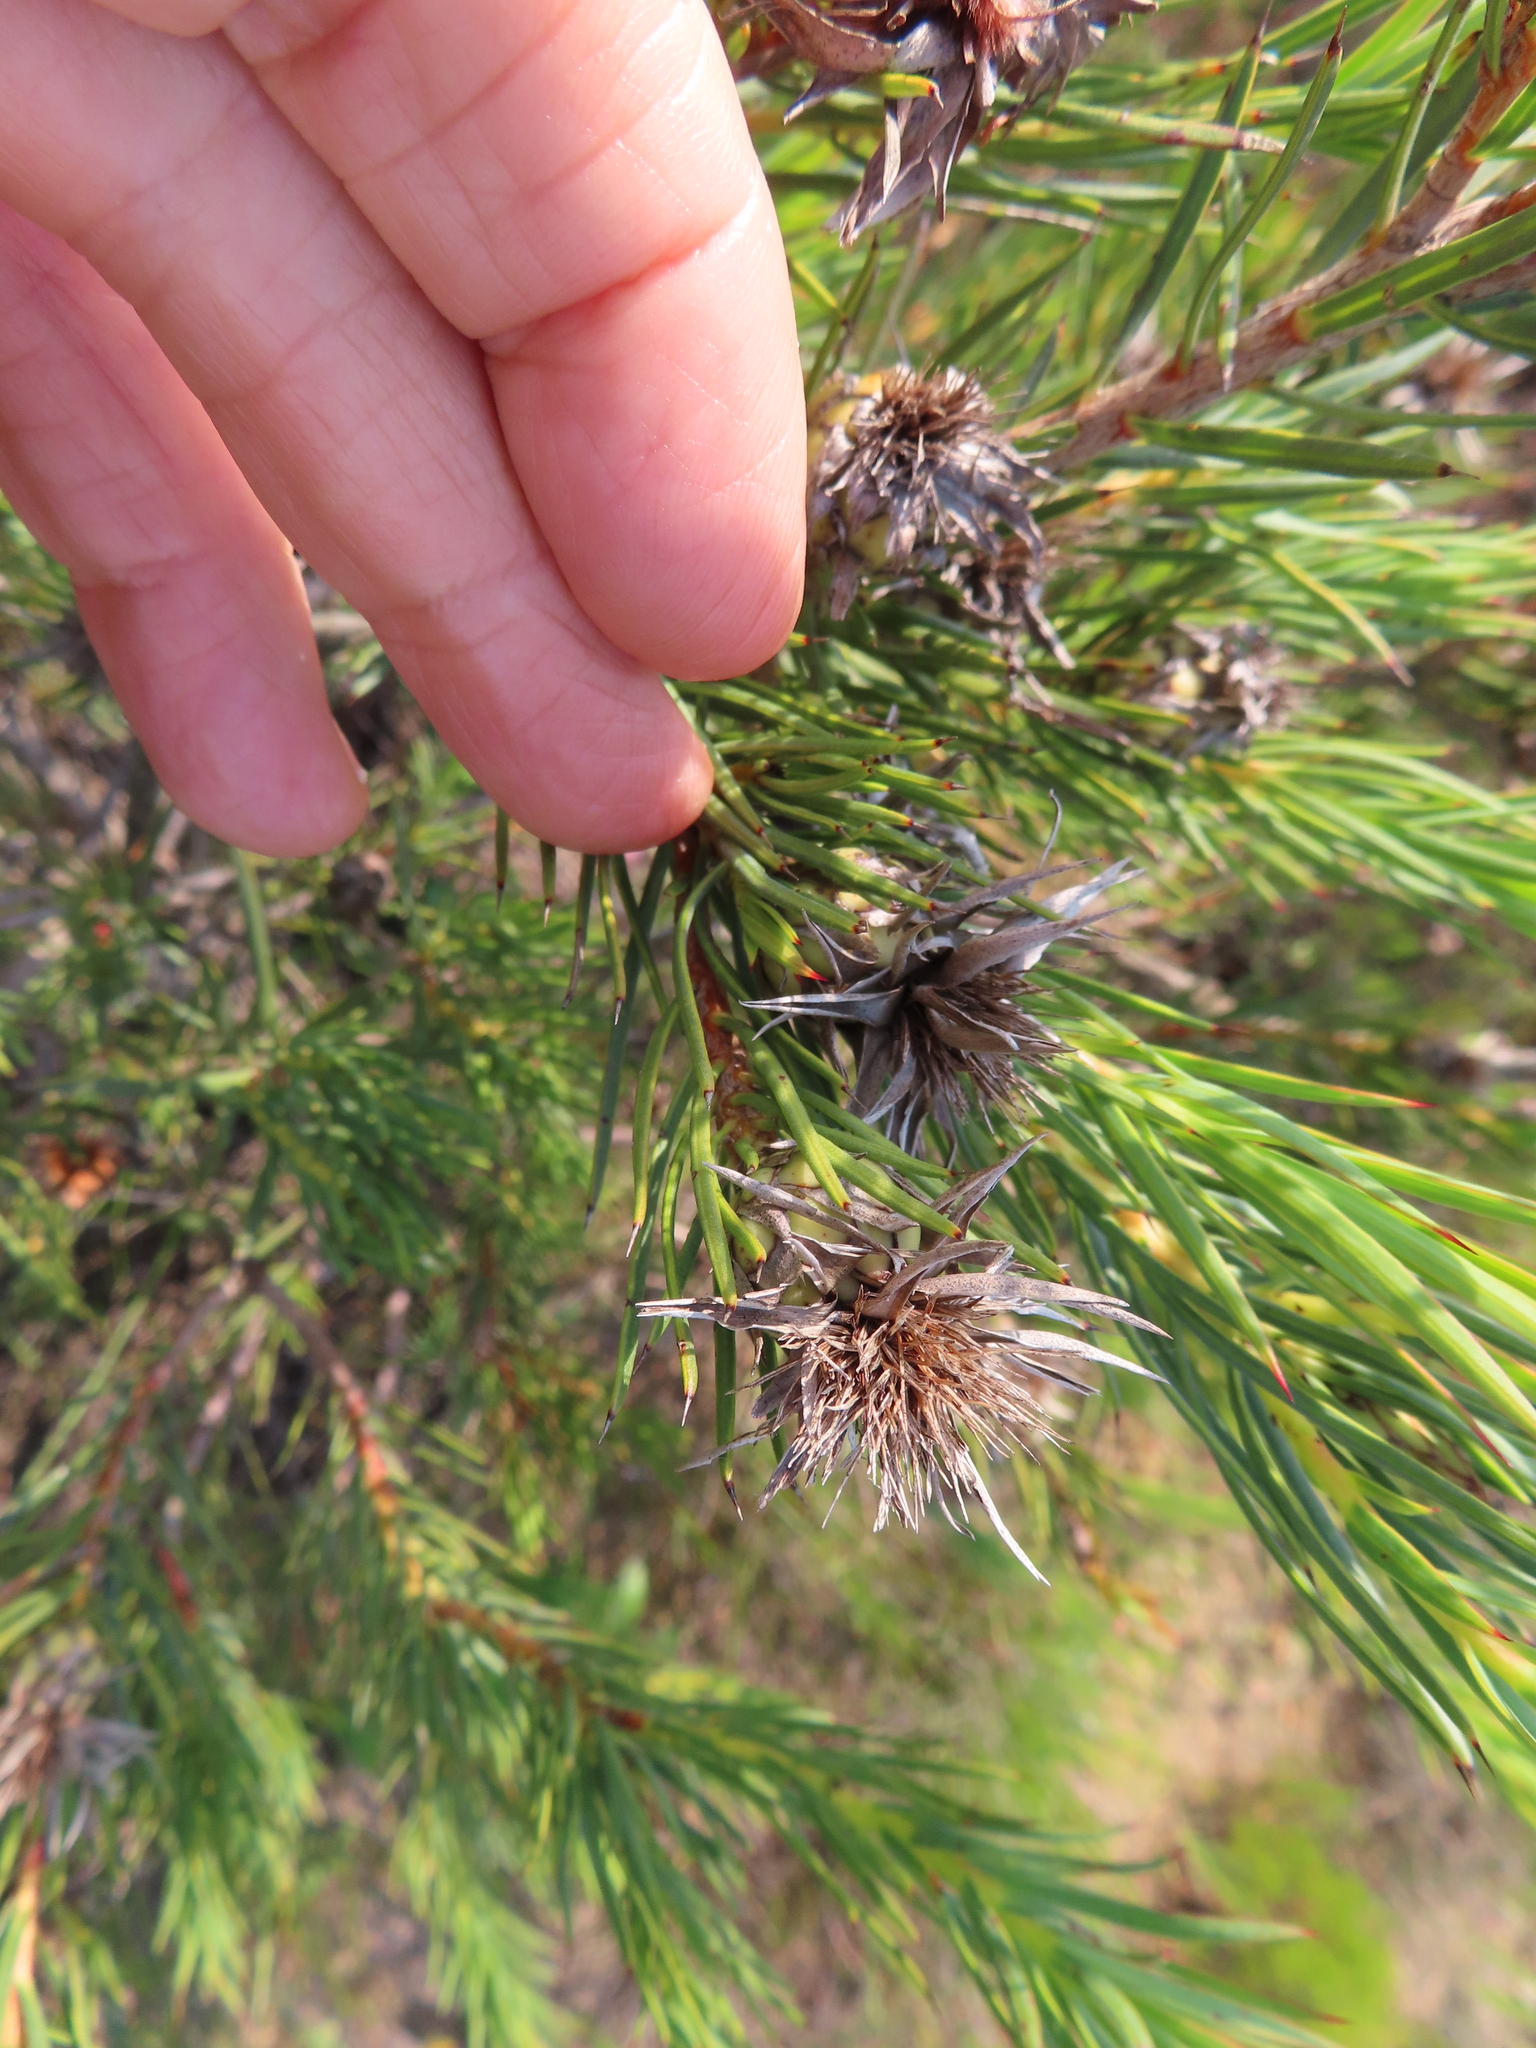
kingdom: Plantae
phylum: Tracheophyta
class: Magnoliopsida
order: Proteales
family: Proteaceae
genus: Protea
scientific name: Protea mucronifolia
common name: Dagger-leaf sugarbush
